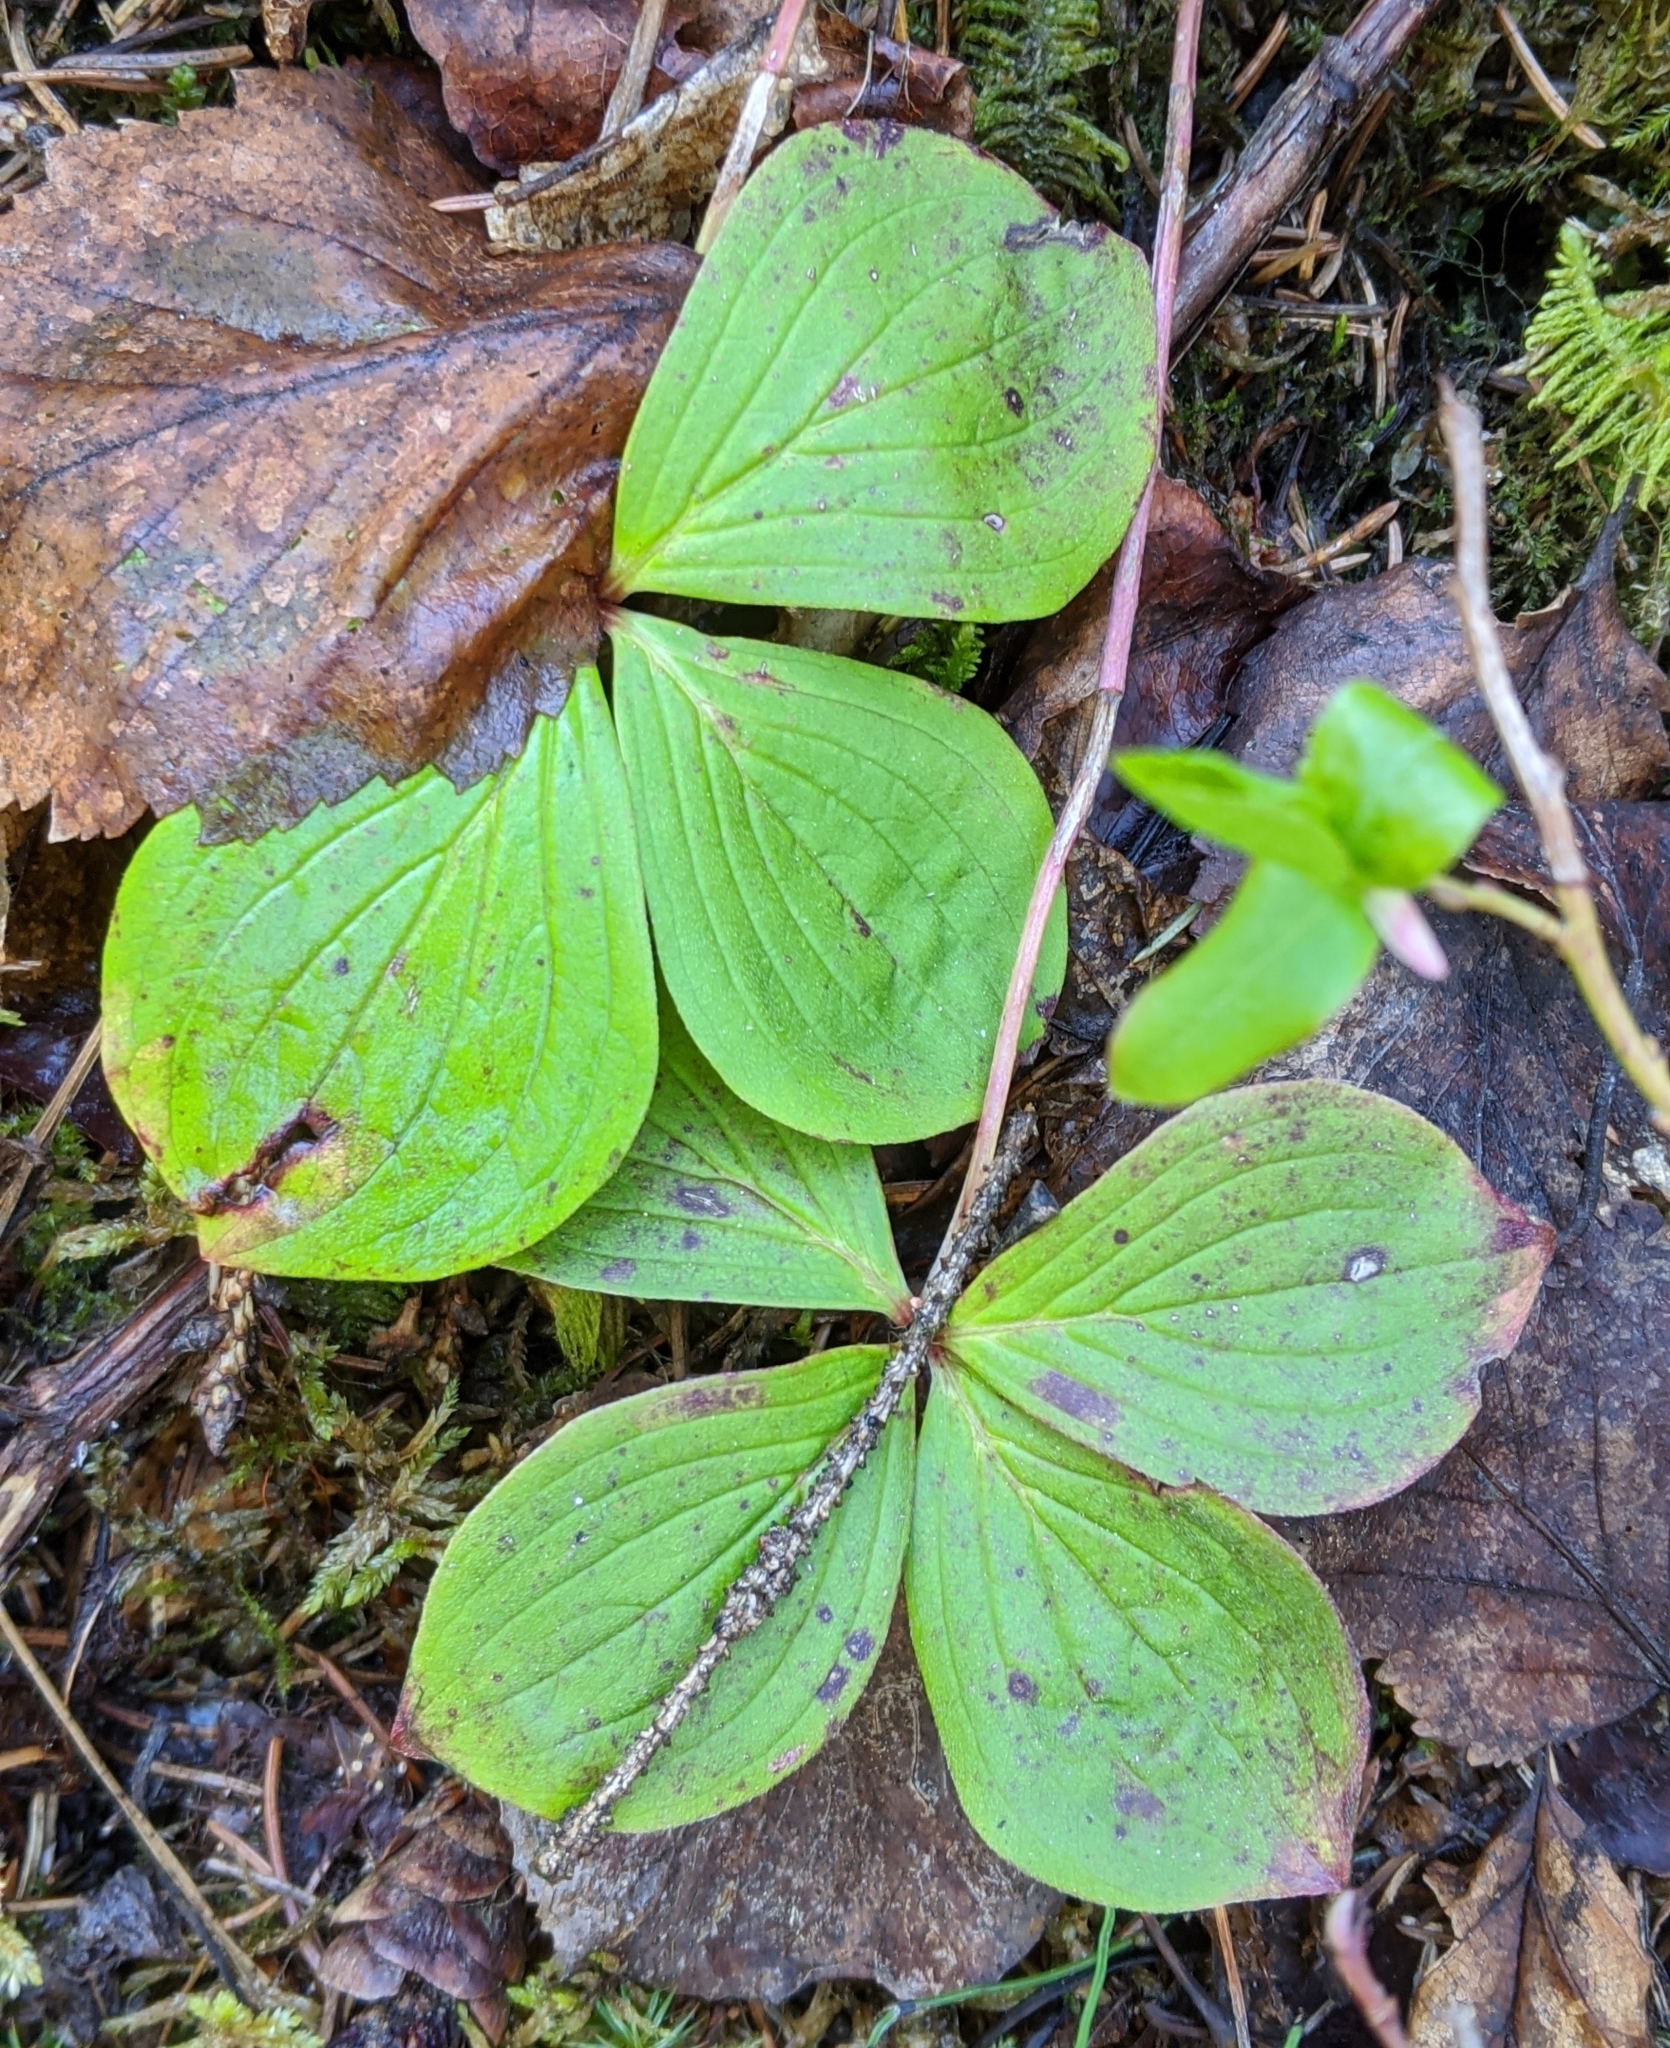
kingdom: Plantae
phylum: Tracheophyta
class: Magnoliopsida
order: Cornales
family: Cornaceae
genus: Cornus
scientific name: Cornus canadensis
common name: Creeping dogwood
